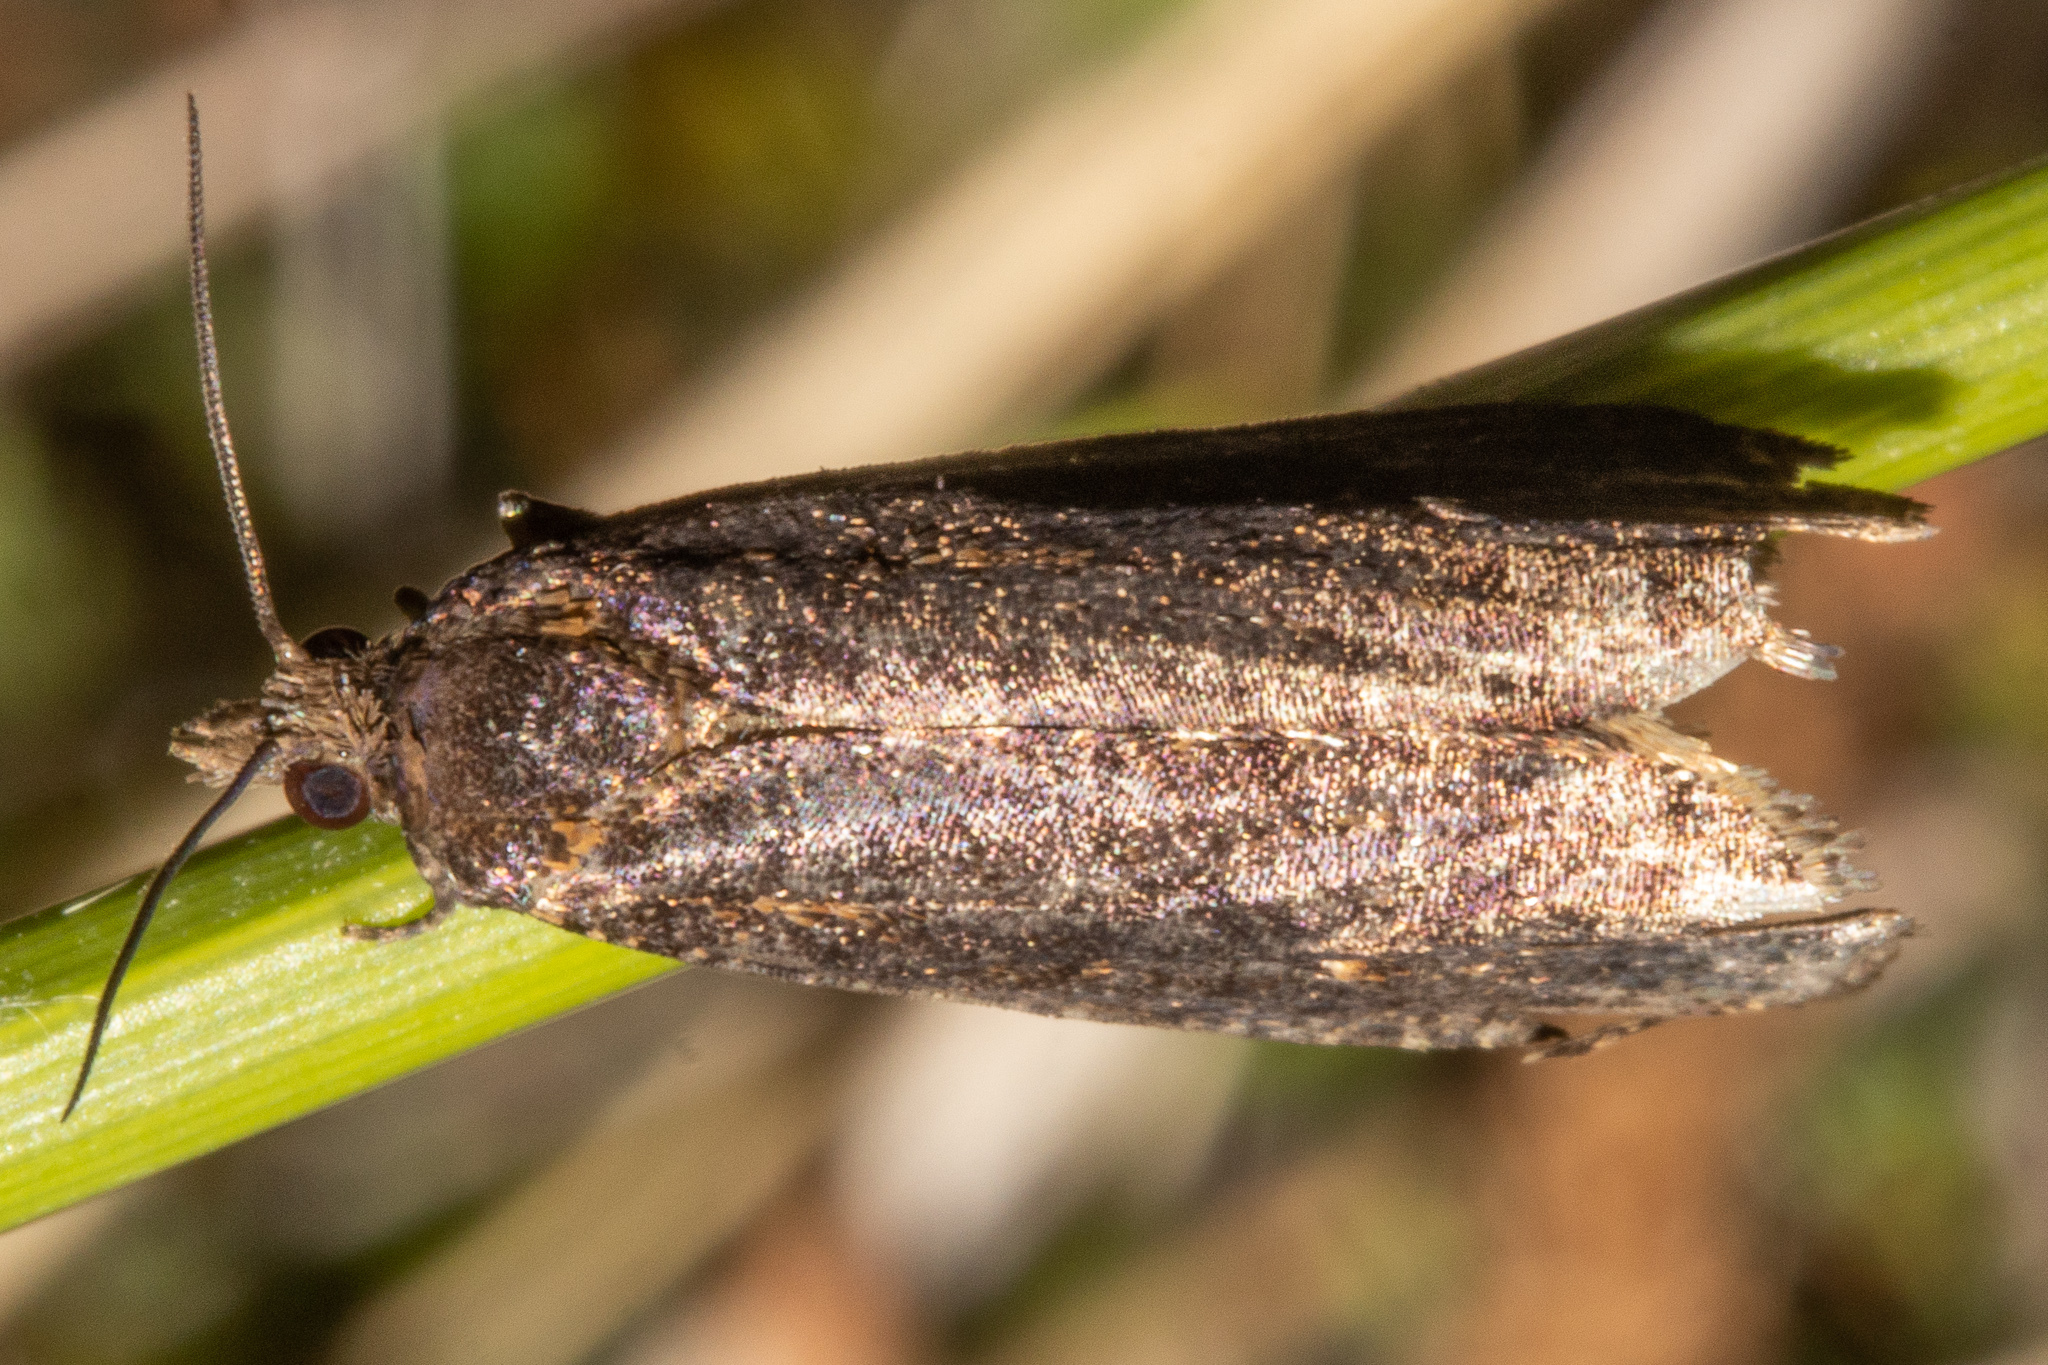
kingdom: Animalia
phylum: Arthropoda
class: Insecta
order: Lepidoptera
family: Tortricidae
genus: Cryptaspasma
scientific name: Cryptaspasma querula
